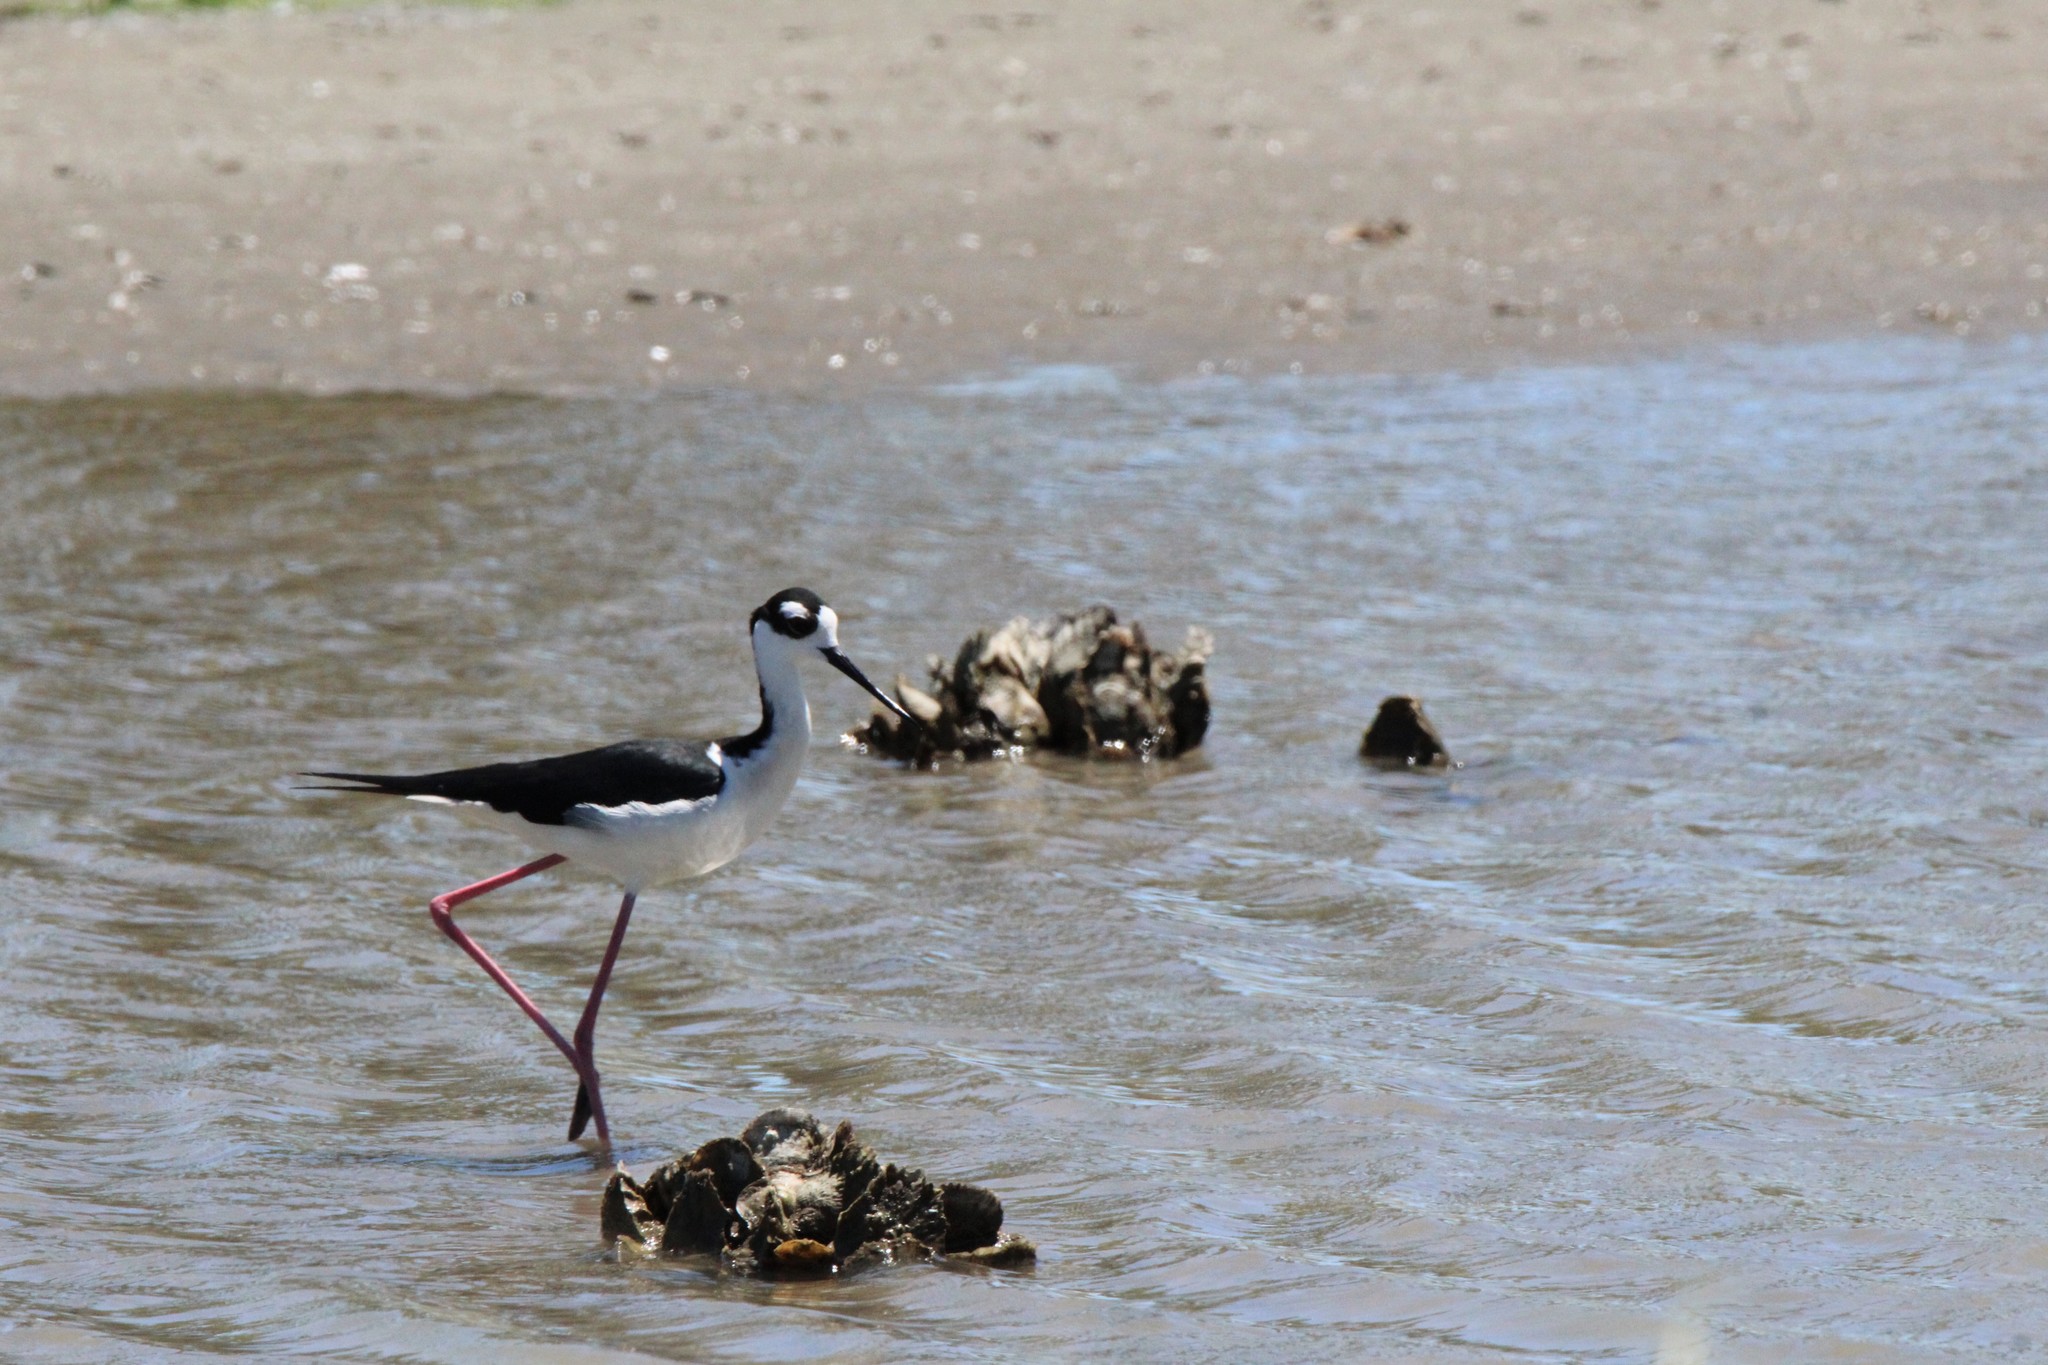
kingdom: Animalia
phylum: Chordata
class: Aves
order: Charadriiformes
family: Recurvirostridae
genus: Himantopus
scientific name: Himantopus mexicanus
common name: Black-necked stilt
